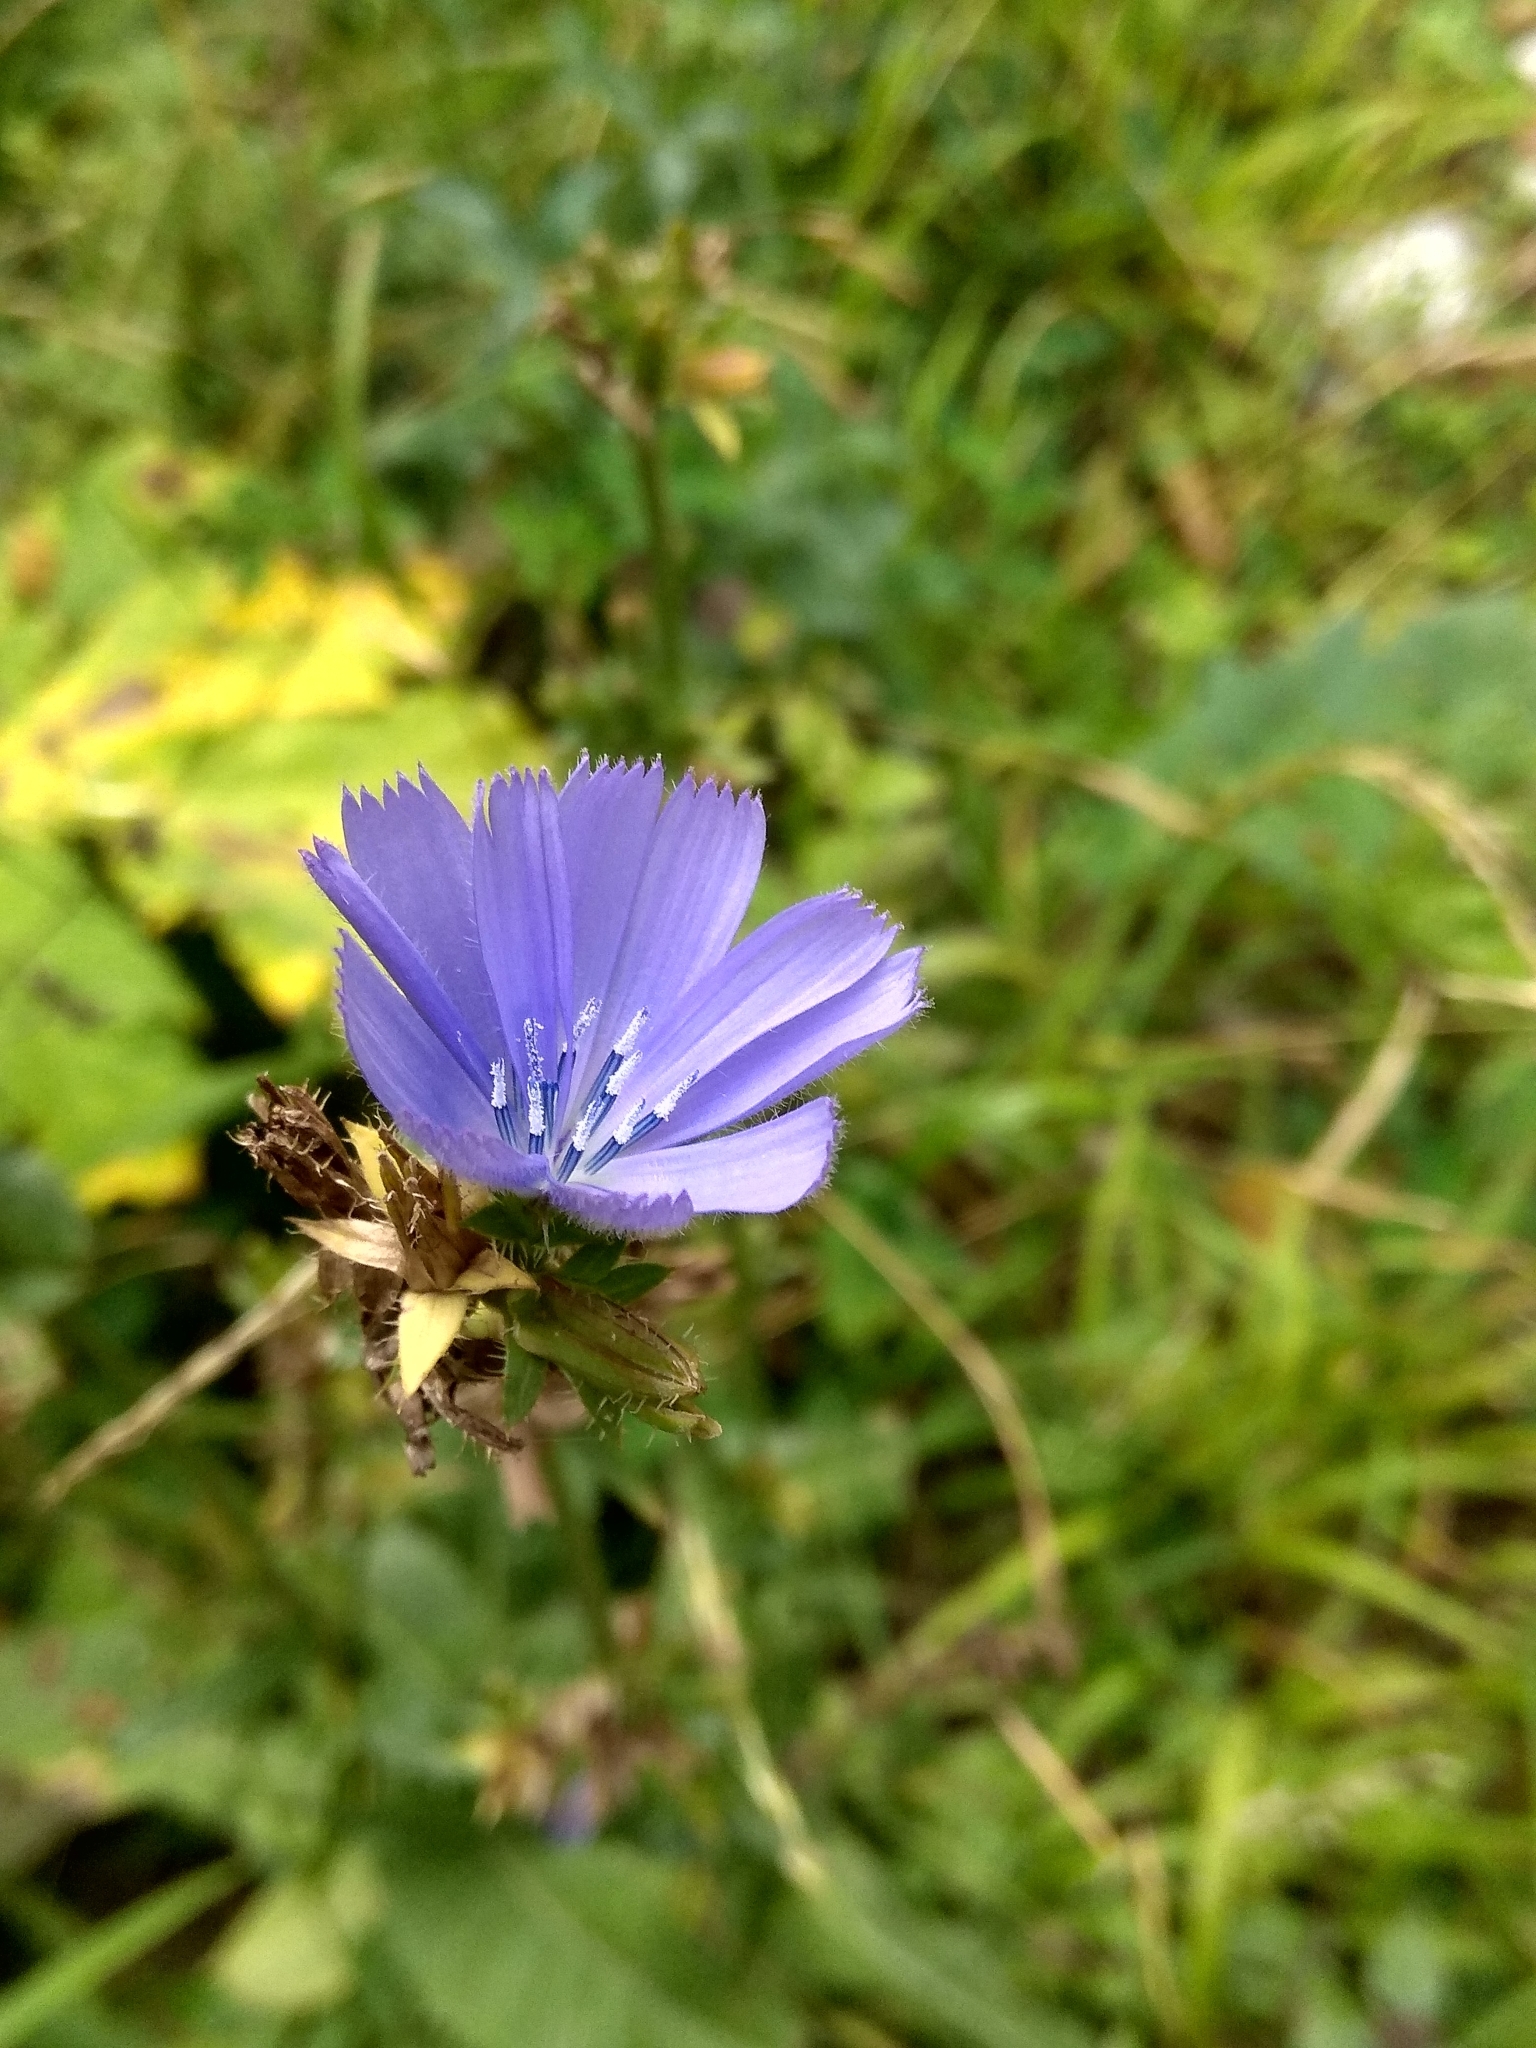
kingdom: Plantae
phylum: Tracheophyta
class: Magnoliopsida
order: Asterales
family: Asteraceae
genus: Cichorium
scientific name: Cichorium intybus
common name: Chicory
